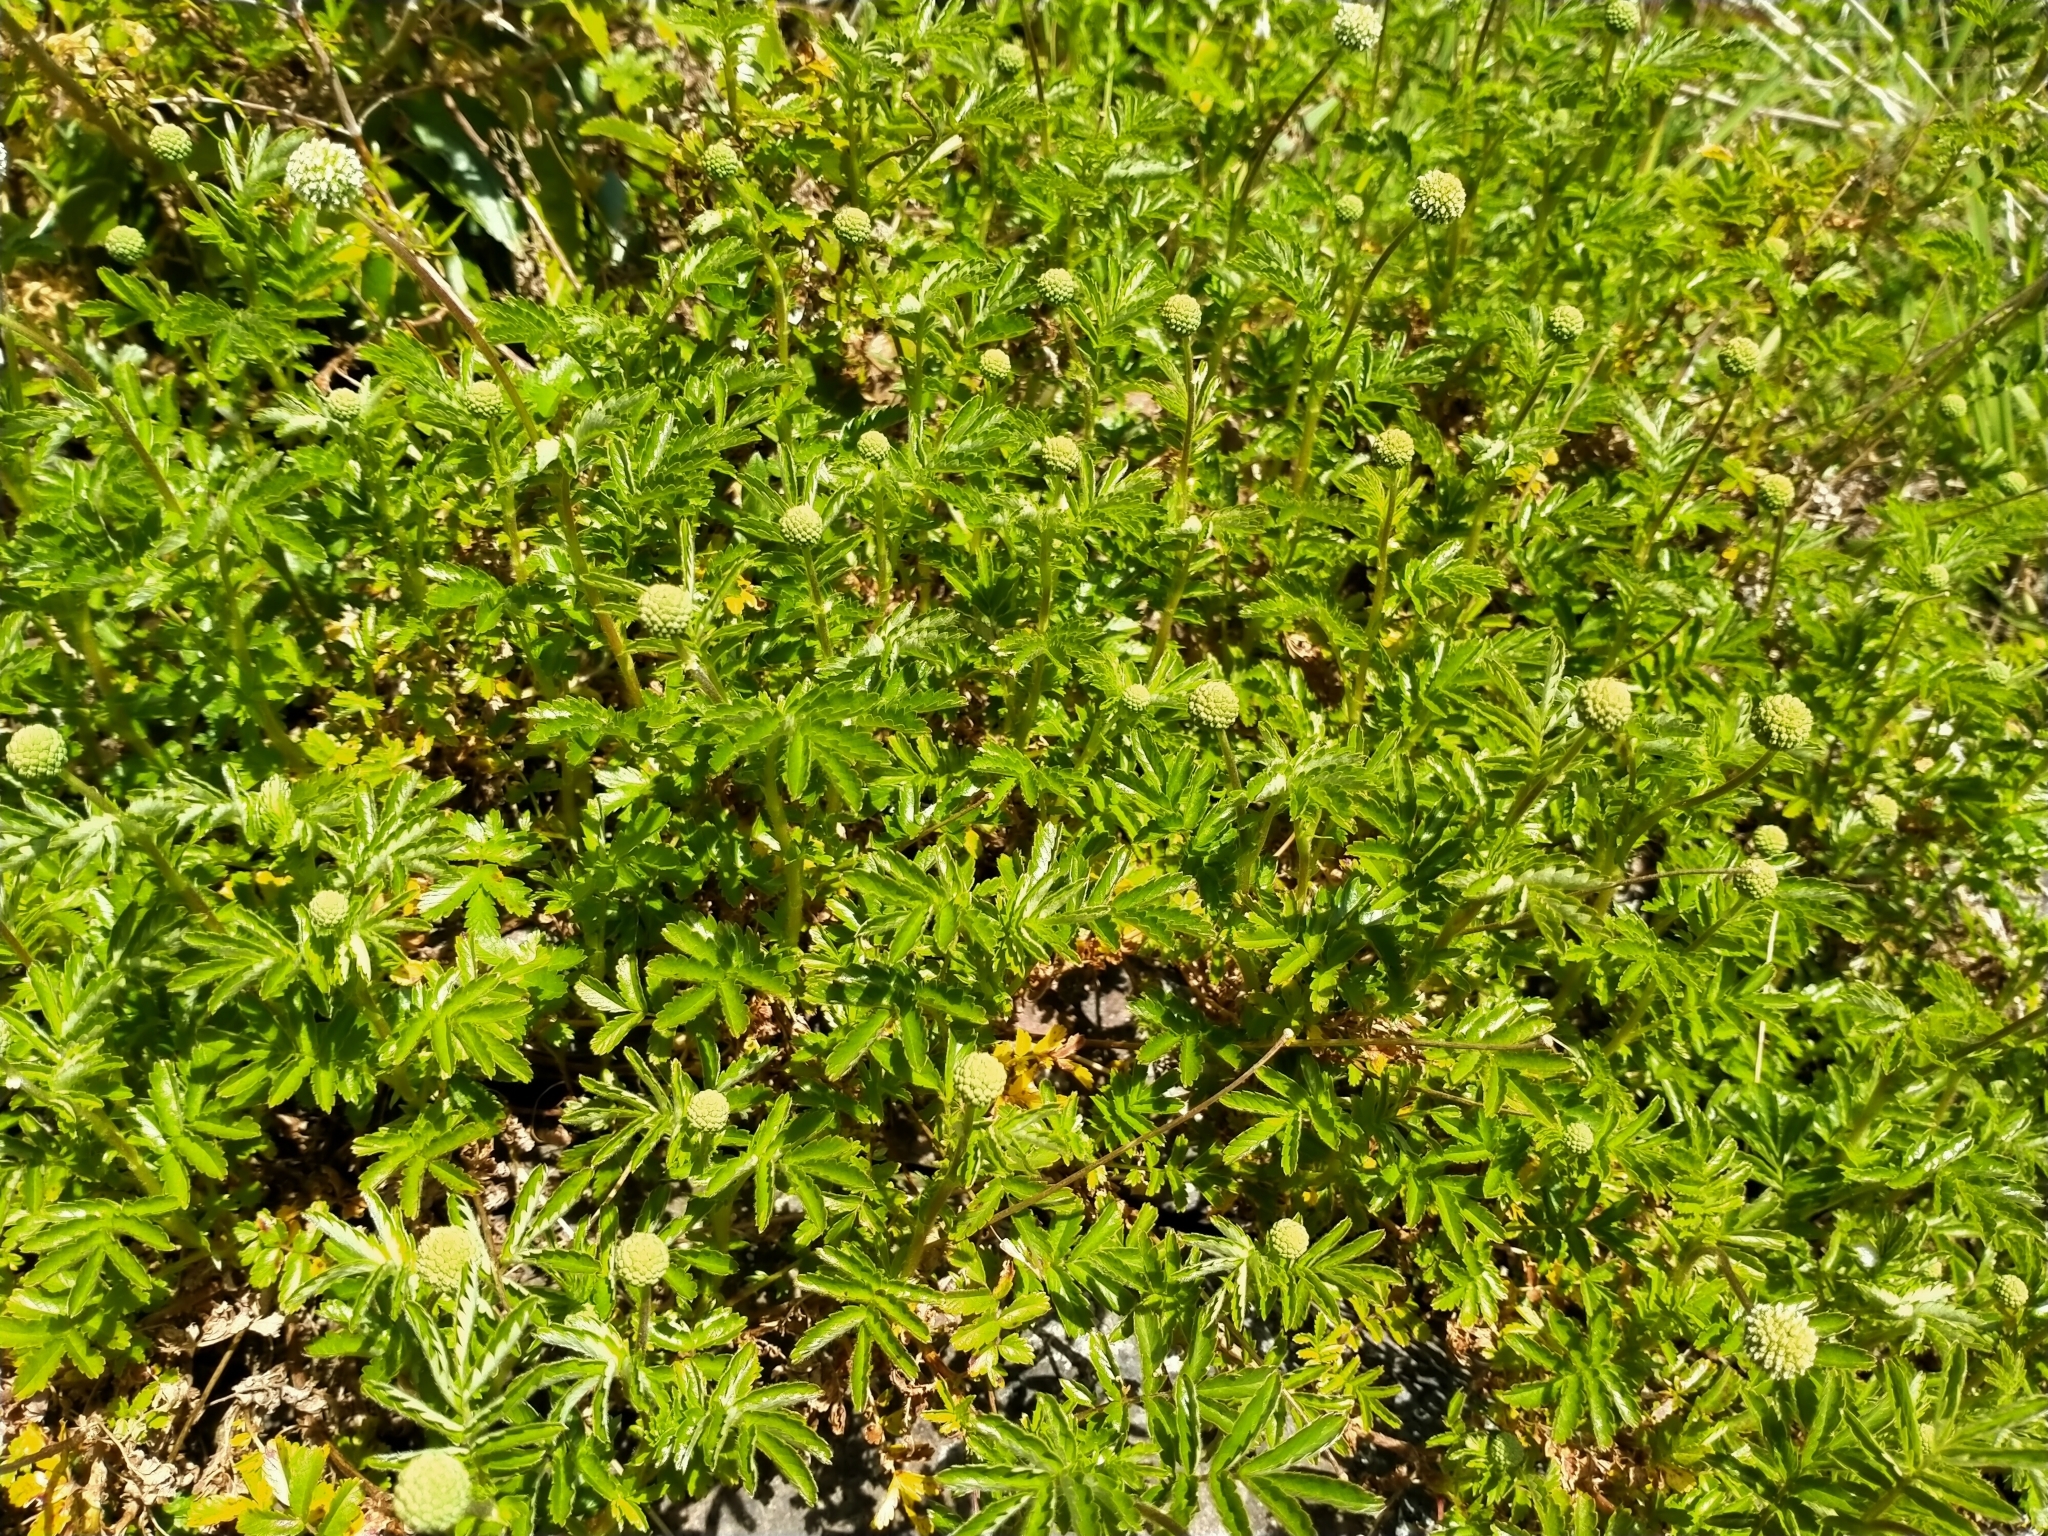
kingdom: Plantae
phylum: Tracheophyta
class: Magnoliopsida
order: Rosales
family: Rosaceae
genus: Acaena
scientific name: Acaena novae-zelandiae
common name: Pirri-pirri-bur
